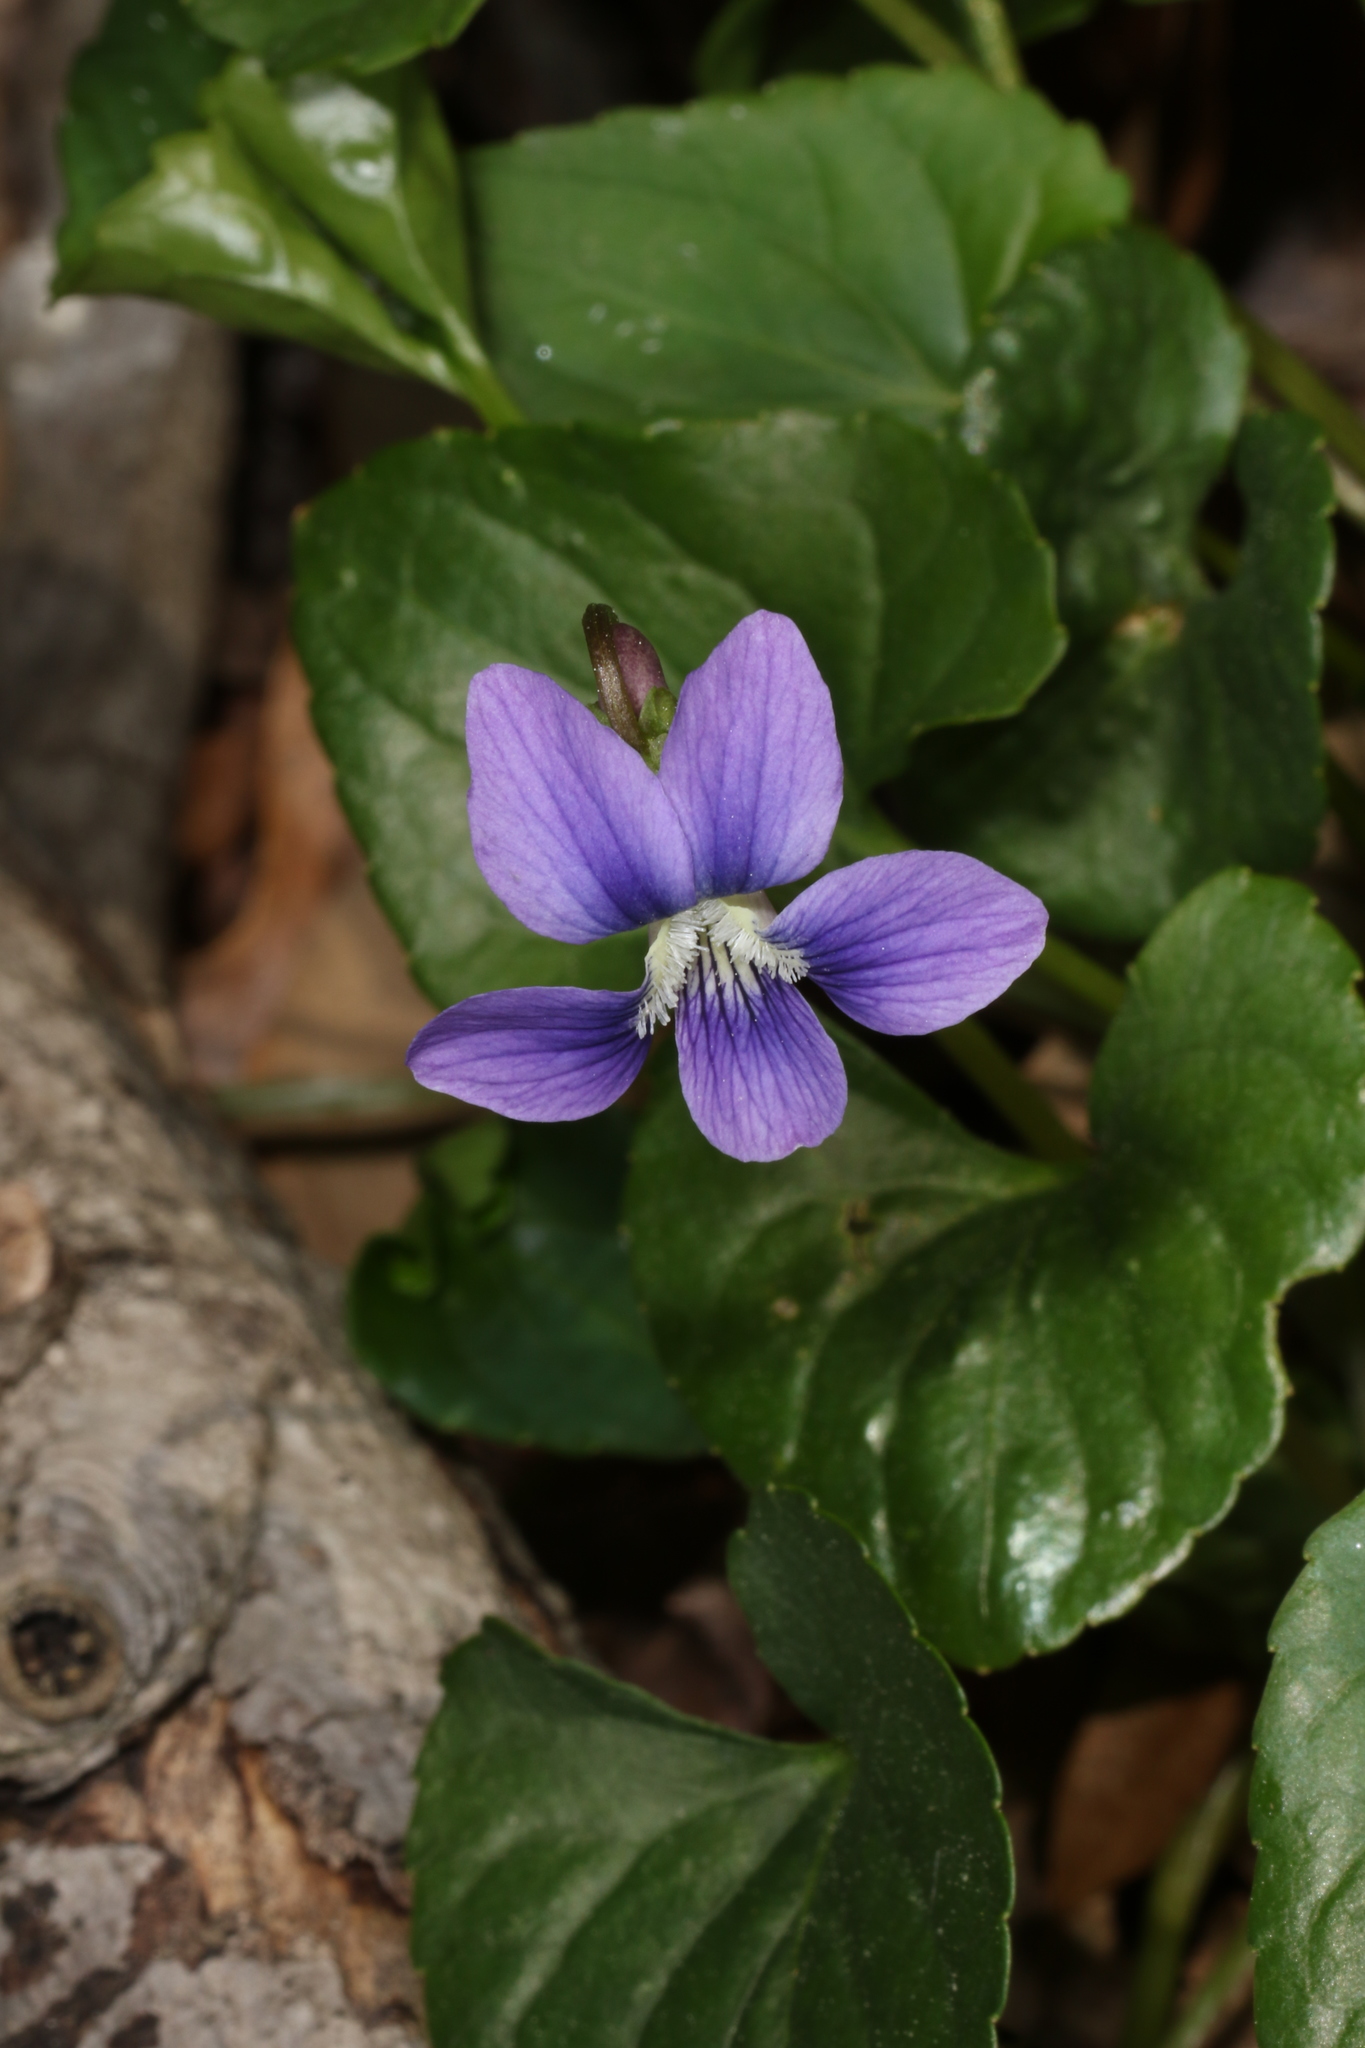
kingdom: Plantae
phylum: Tracheophyta
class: Magnoliopsida
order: Malpighiales
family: Violaceae
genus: Viola
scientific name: Viola sororia
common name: Dooryard violet
